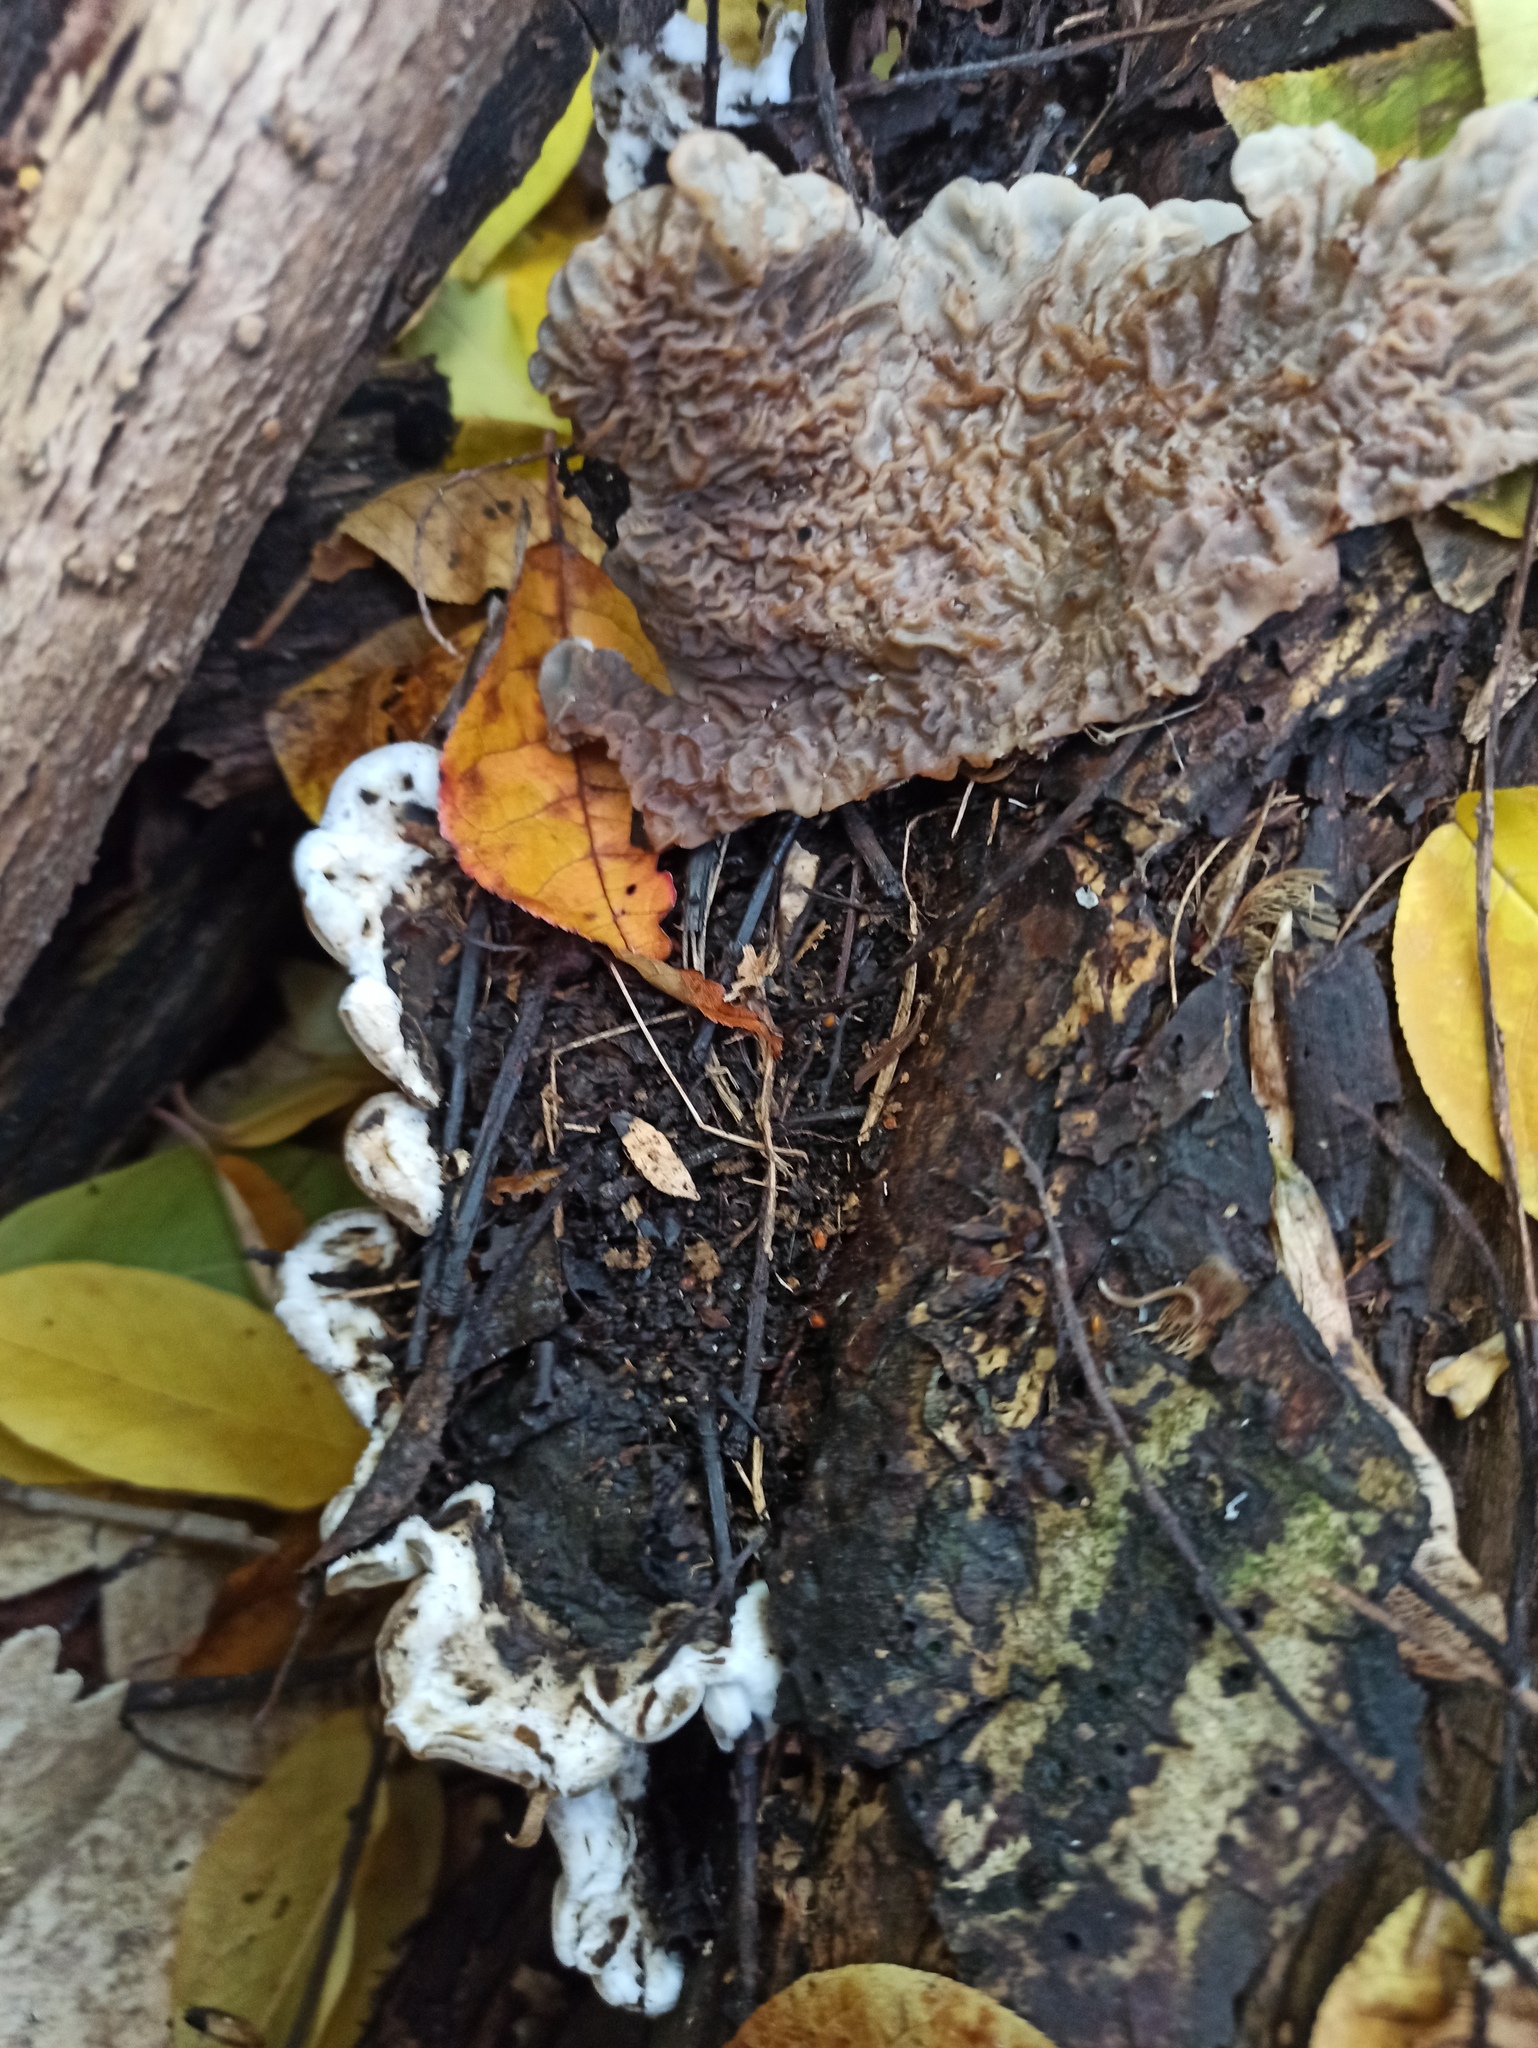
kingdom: Fungi
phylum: Basidiomycota
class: Agaricomycetes
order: Auriculariales
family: Auriculariaceae
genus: Auricularia
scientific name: Auricularia mesenterica
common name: Tripe fungus
